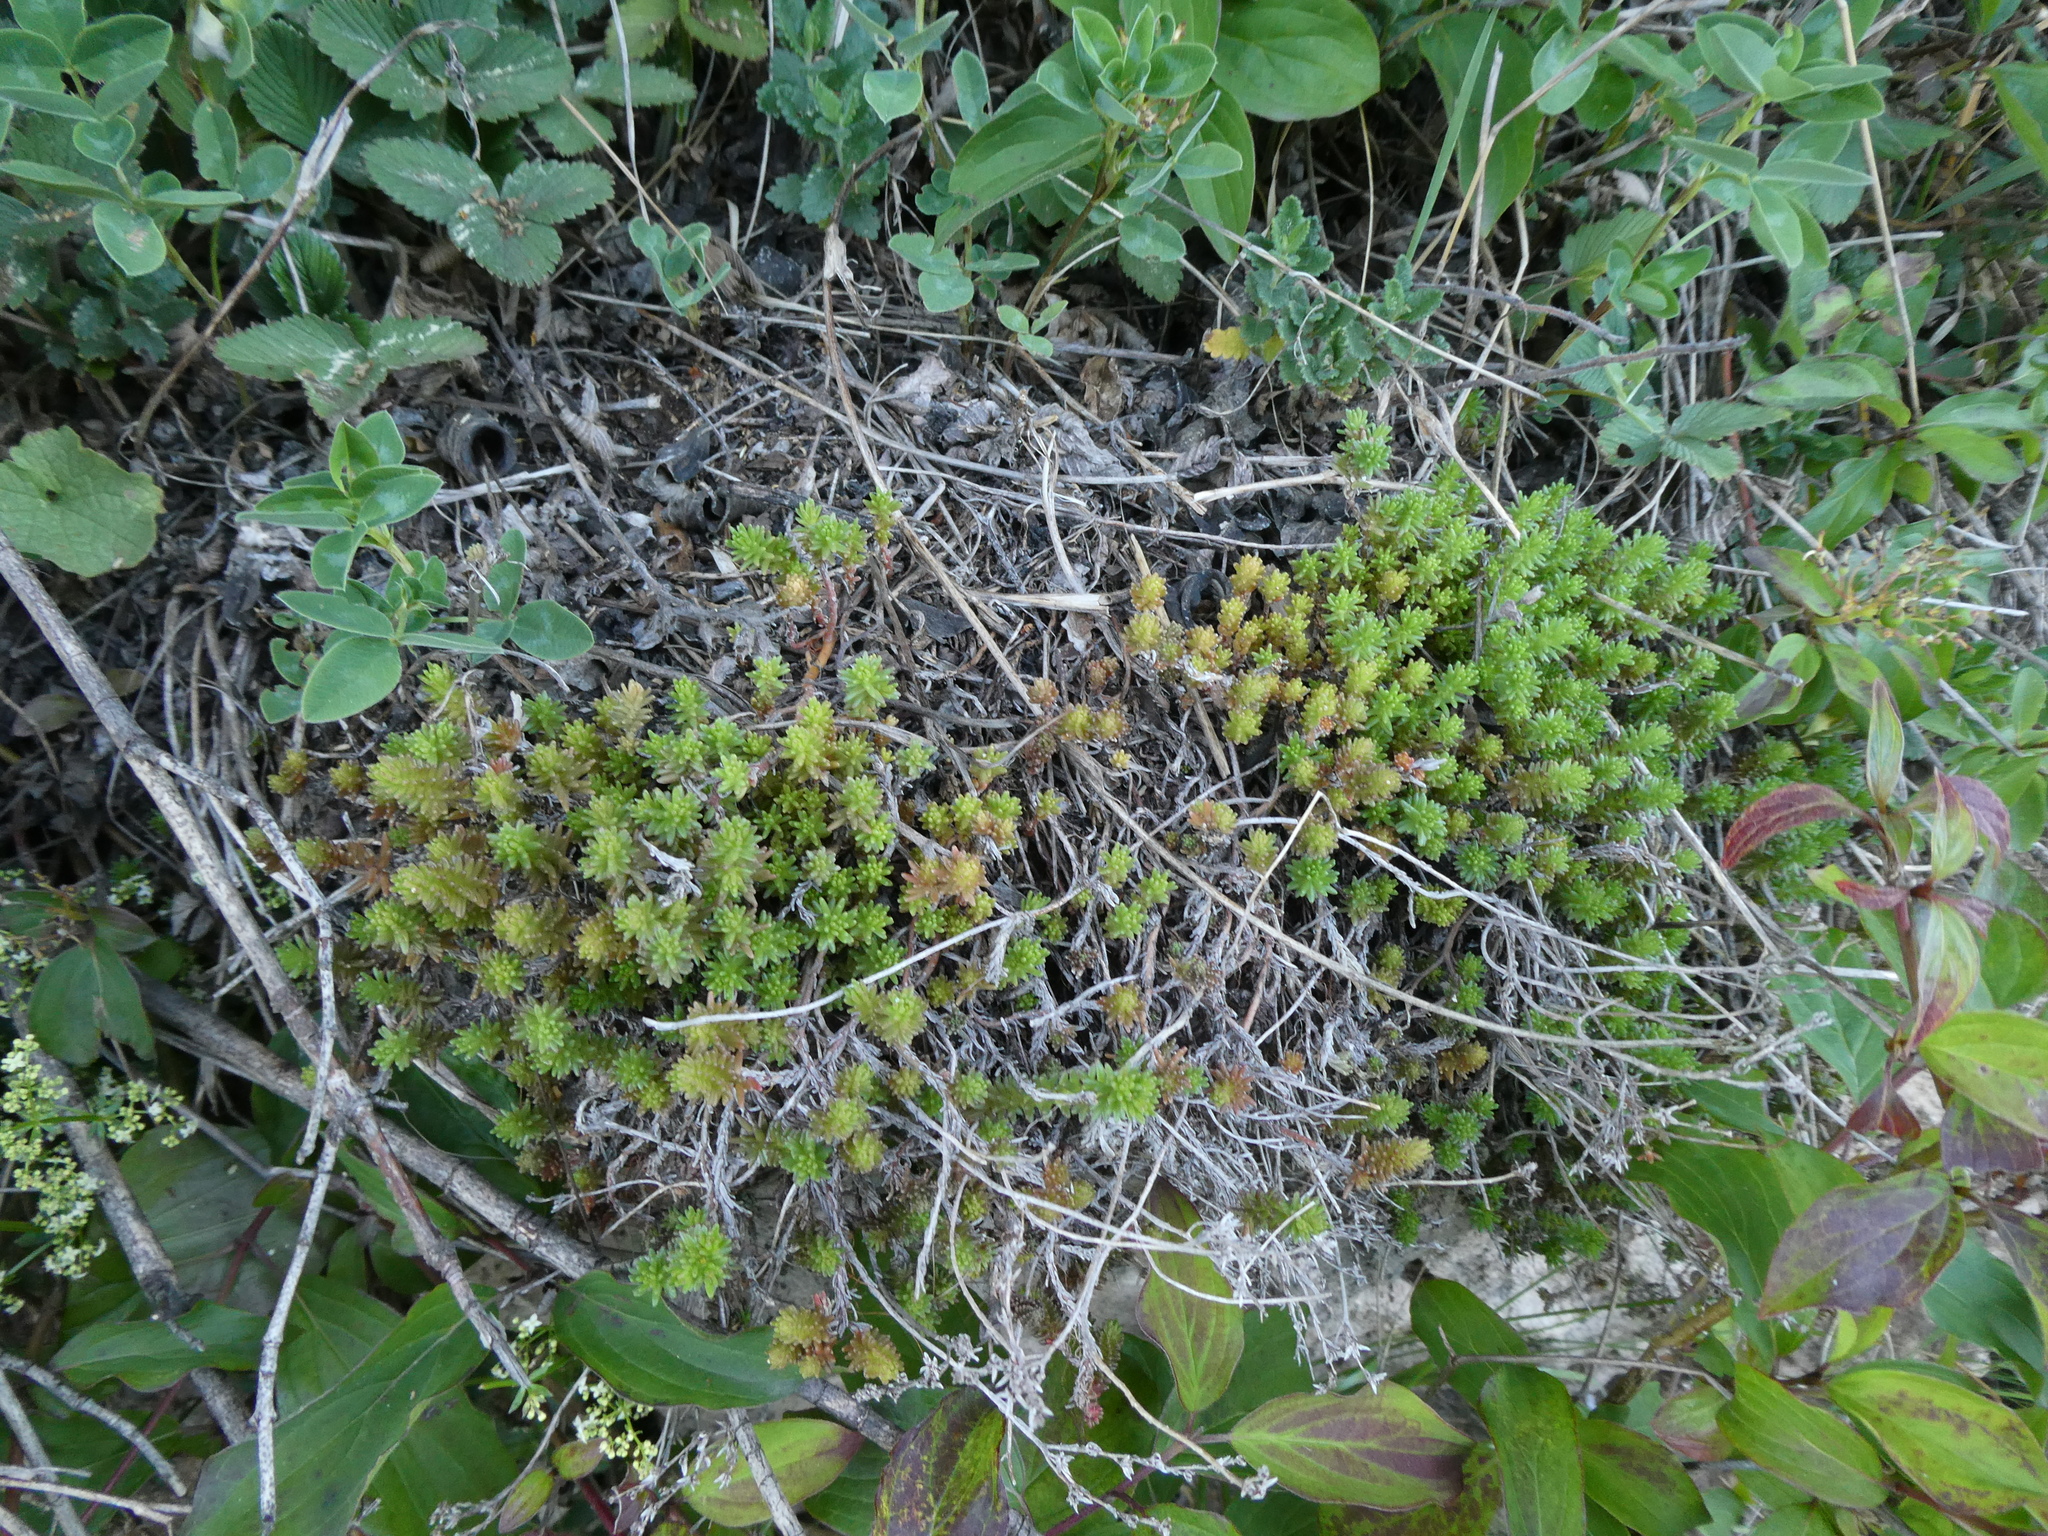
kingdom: Plantae
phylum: Tracheophyta
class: Magnoliopsida
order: Saxifragales
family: Crassulaceae
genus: Sedum
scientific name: Sedum sexangulare
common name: Tasteless stonecrop
